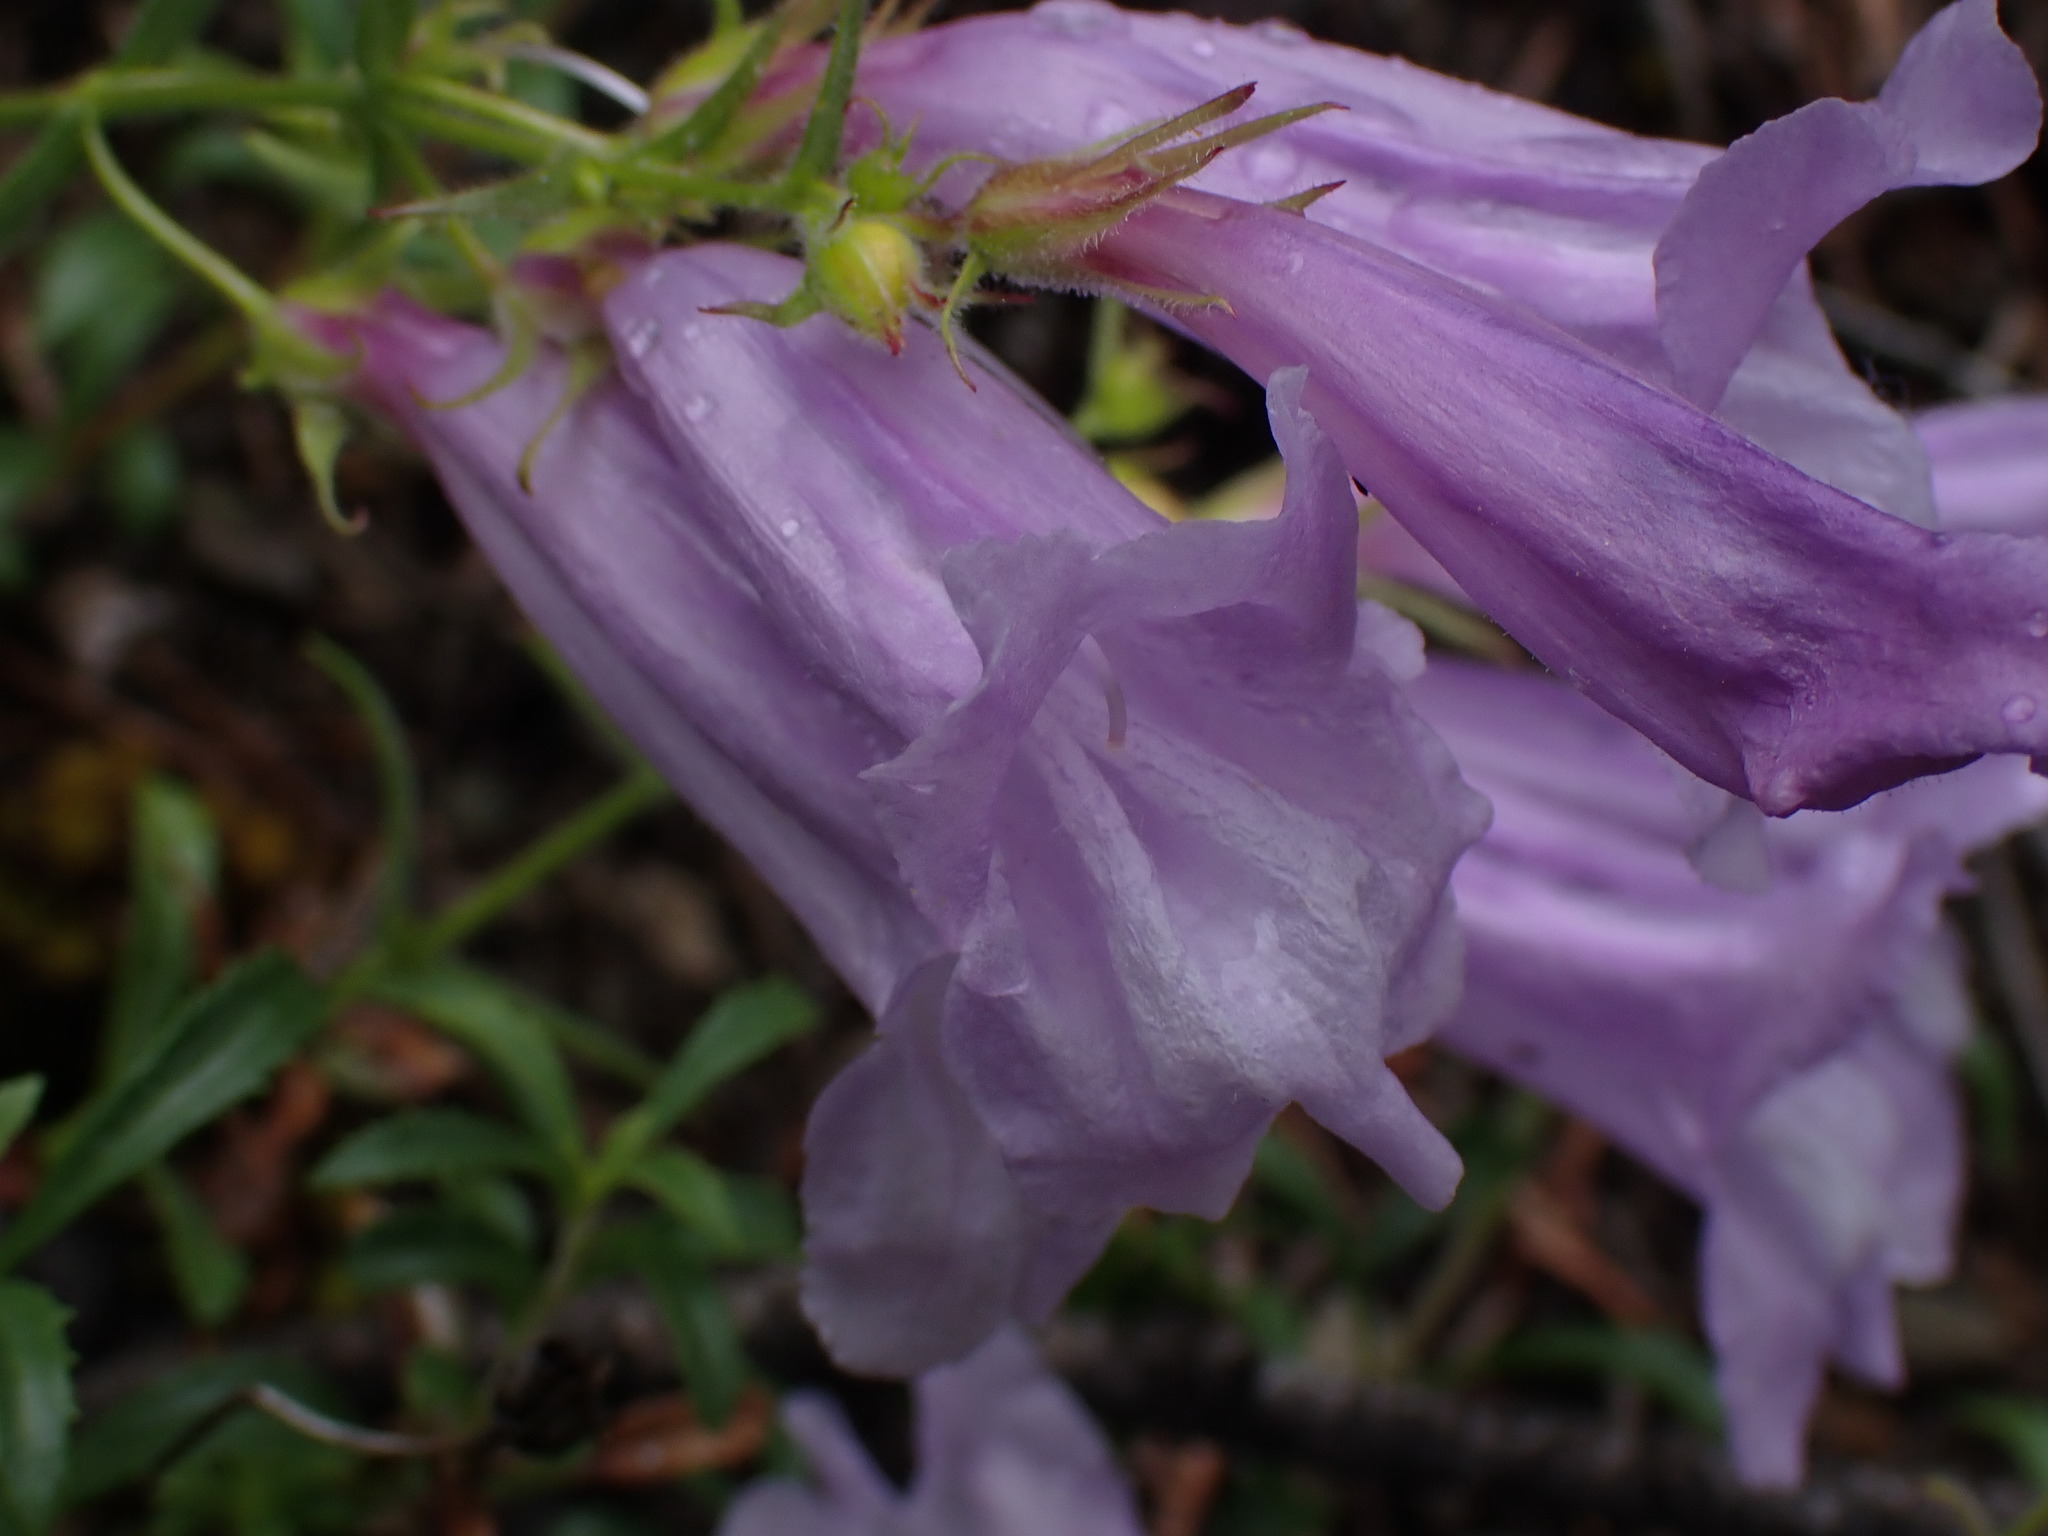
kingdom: Plantae
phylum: Tracheophyta
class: Magnoliopsida
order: Lamiales
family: Plantaginaceae
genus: Penstemon
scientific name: Penstemon fruticosus
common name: Bush penstemon
